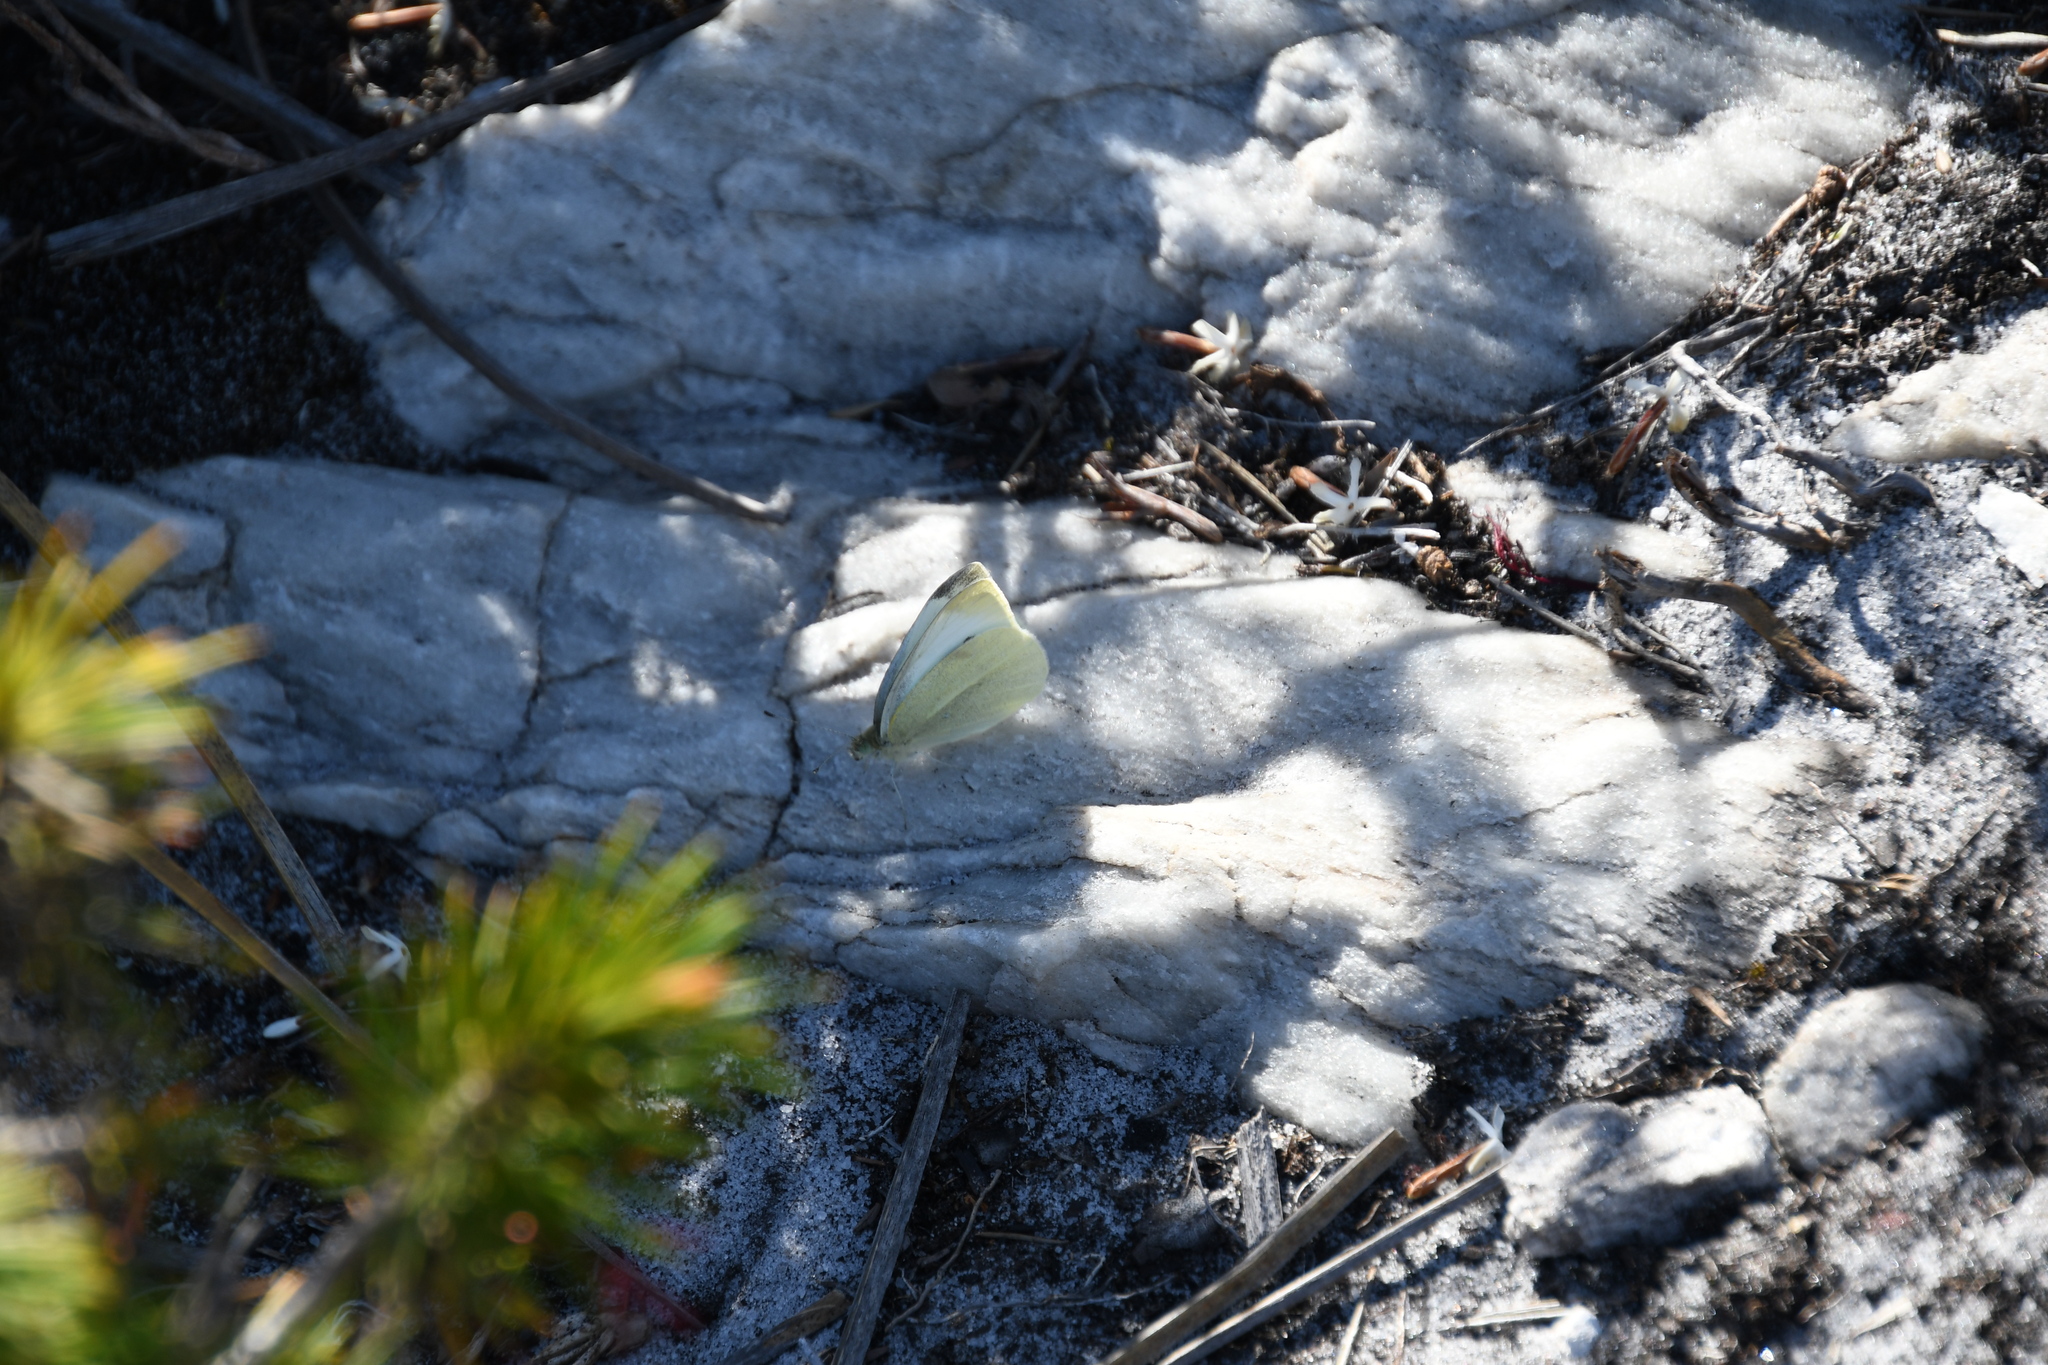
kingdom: Animalia
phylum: Arthropoda
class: Insecta
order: Lepidoptera
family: Pieridae
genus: Pieris
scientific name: Pieris rapae
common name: Small white
